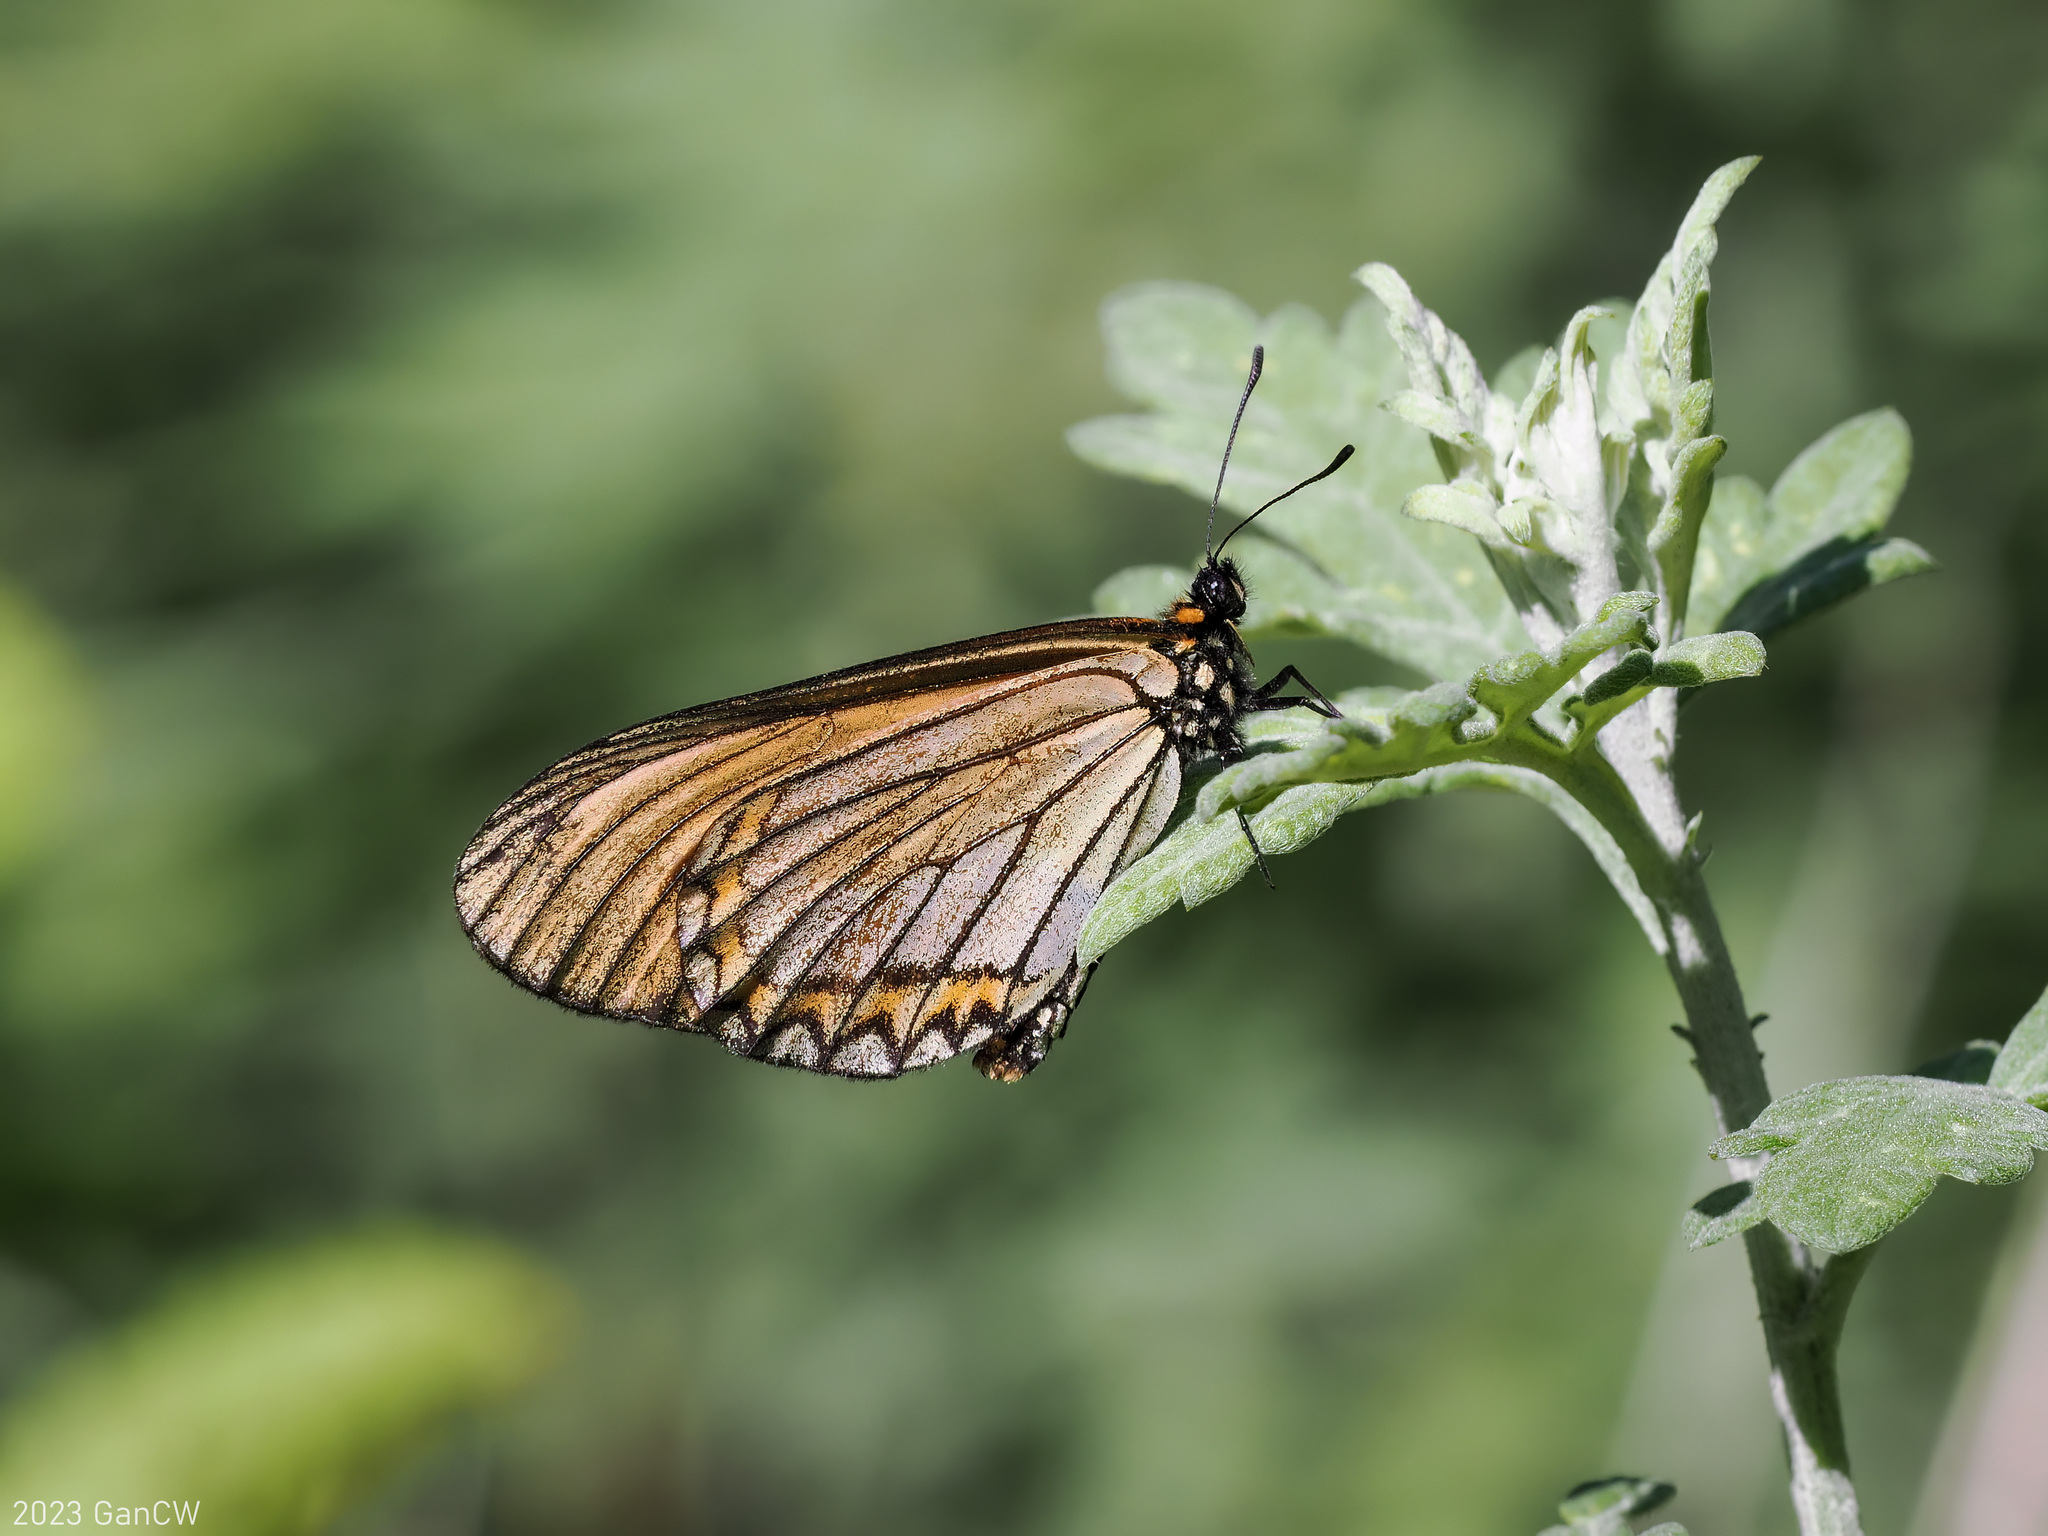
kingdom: Animalia
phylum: Arthropoda
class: Insecta
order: Lepidoptera
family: Nymphalidae
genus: Acraea
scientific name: Acraea Telchinia issoria
